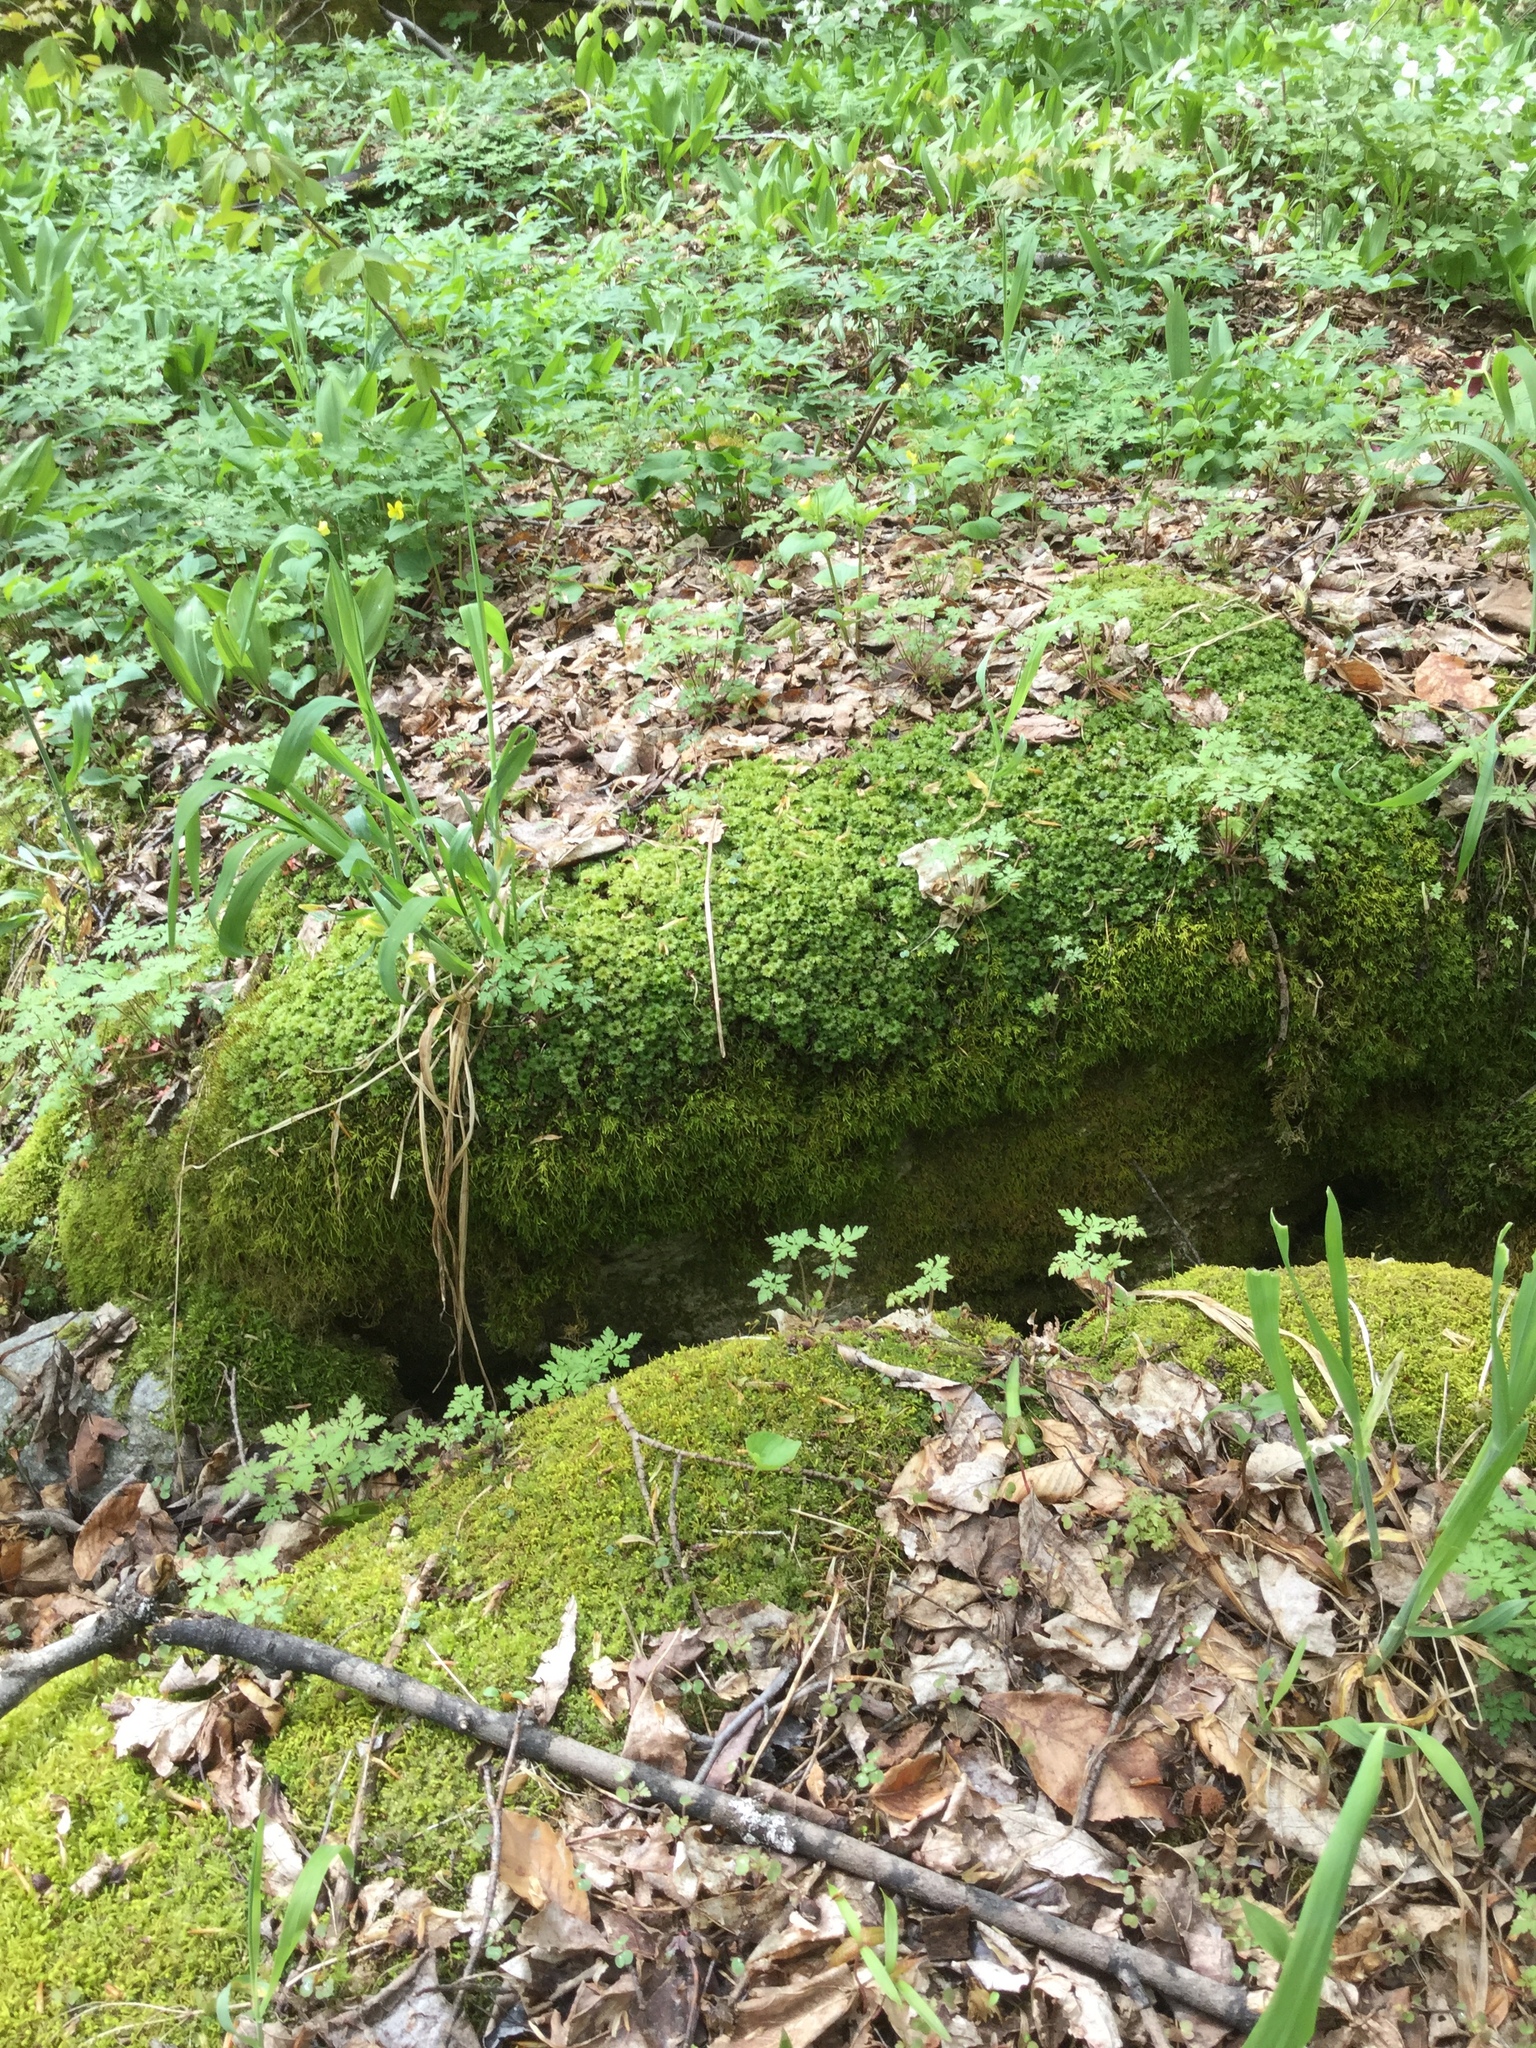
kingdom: Plantae
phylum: Bryophyta
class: Bryopsida
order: Bryales
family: Bryaceae
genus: Rhodobryum
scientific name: Rhodobryum ontariense
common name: Ontario rhodobryum moss
